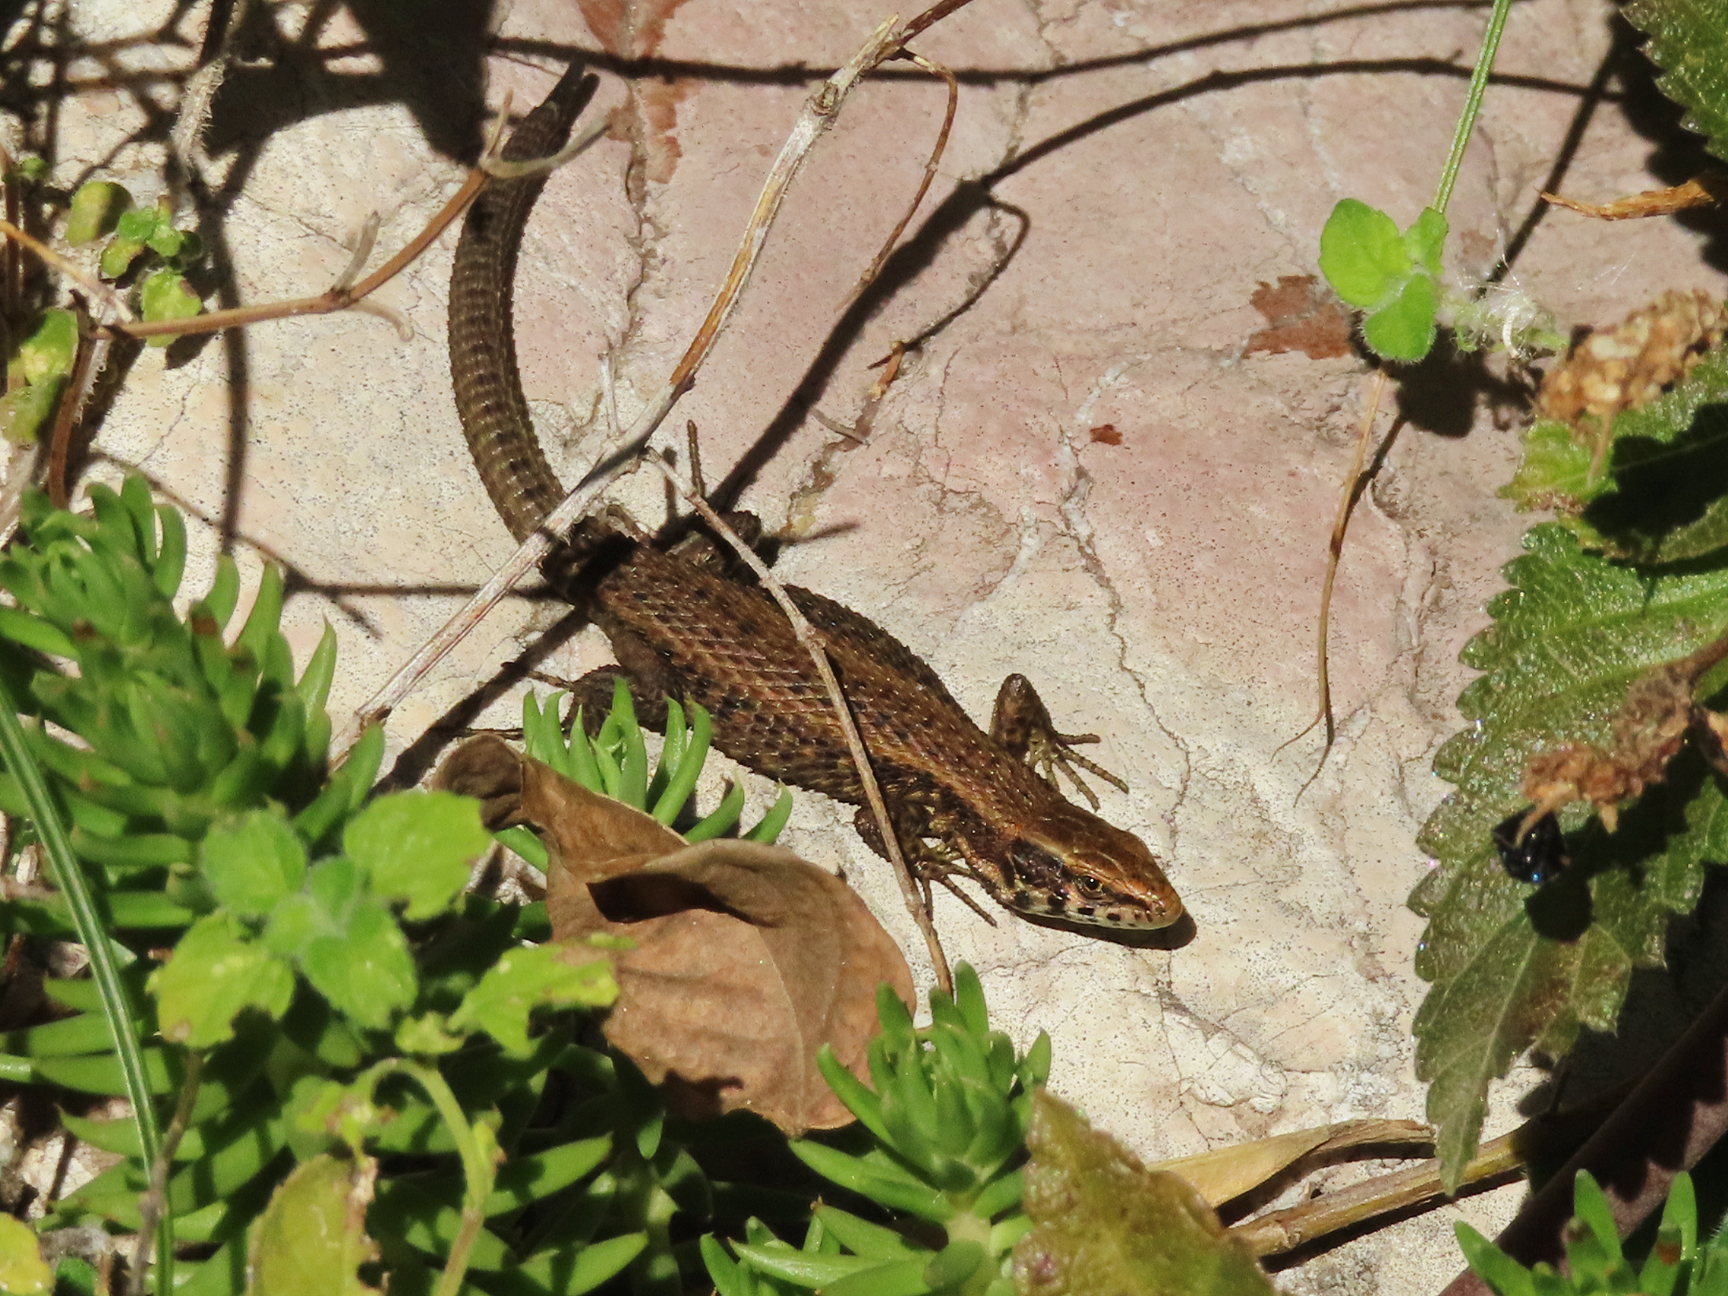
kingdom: Animalia
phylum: Chordata
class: Squamata
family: Lacertidae
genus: Algyroides
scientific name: Algyroides moreoticus
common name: Greek algyroides
